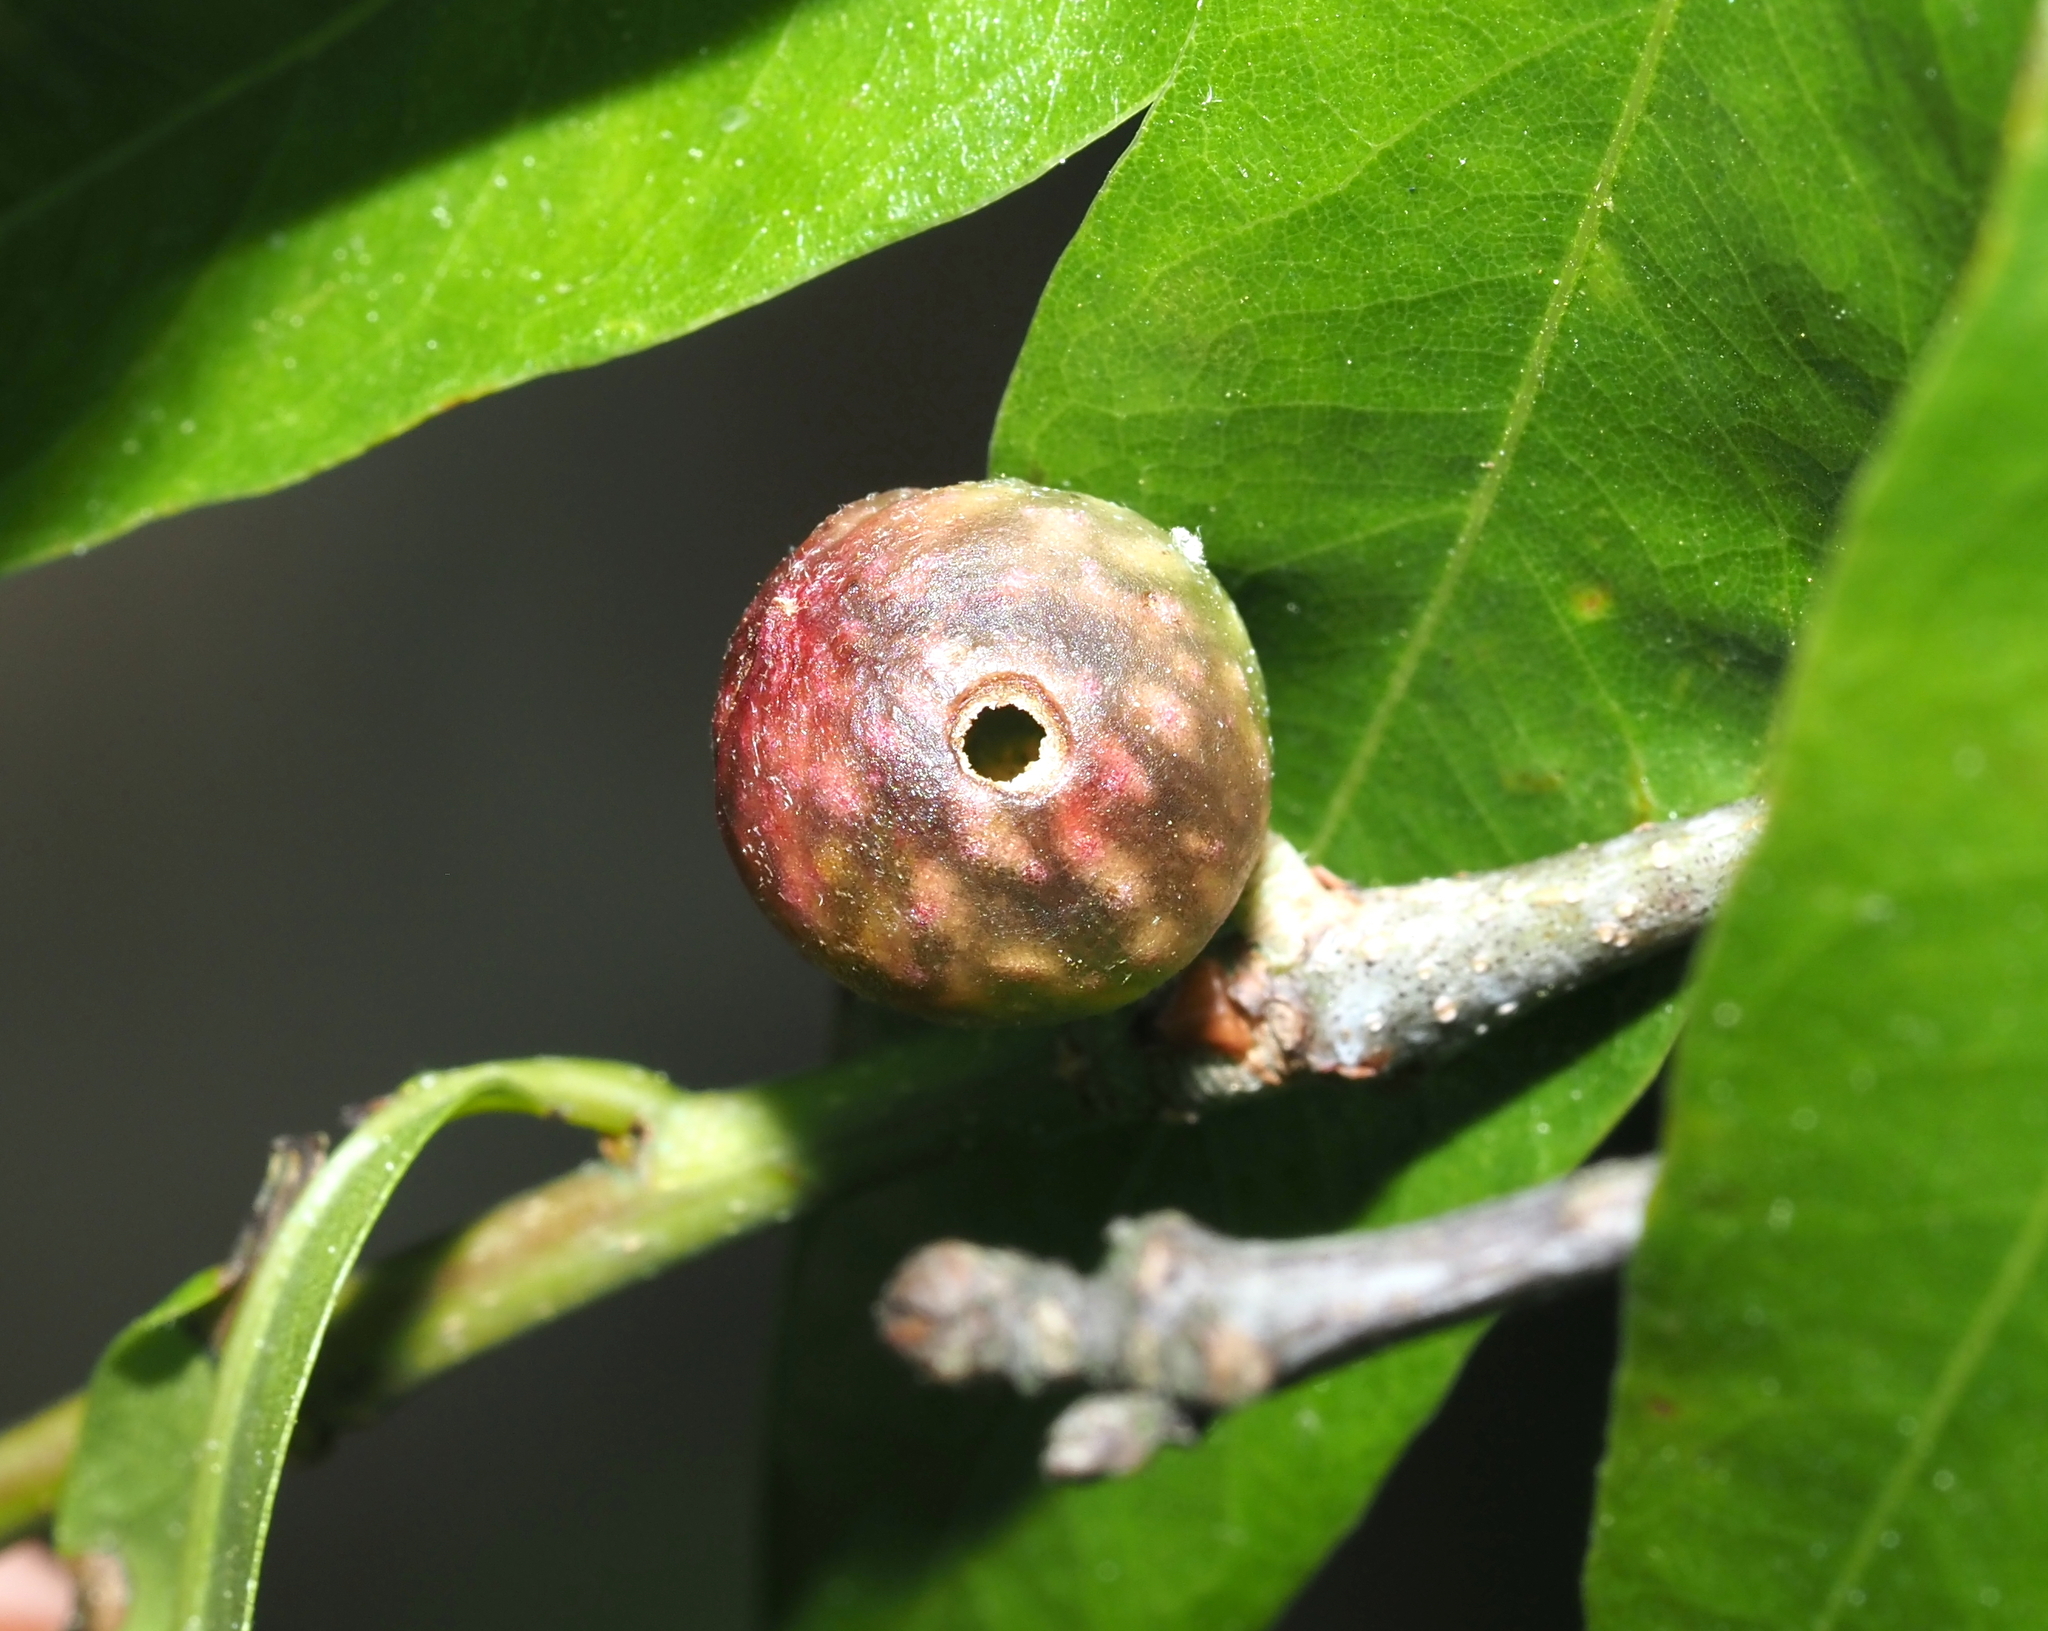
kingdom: Animalia
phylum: Arthropoda
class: Insecta
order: Hymenoptera
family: Cynipidae
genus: Dryocosmus
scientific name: Dryocosmus
